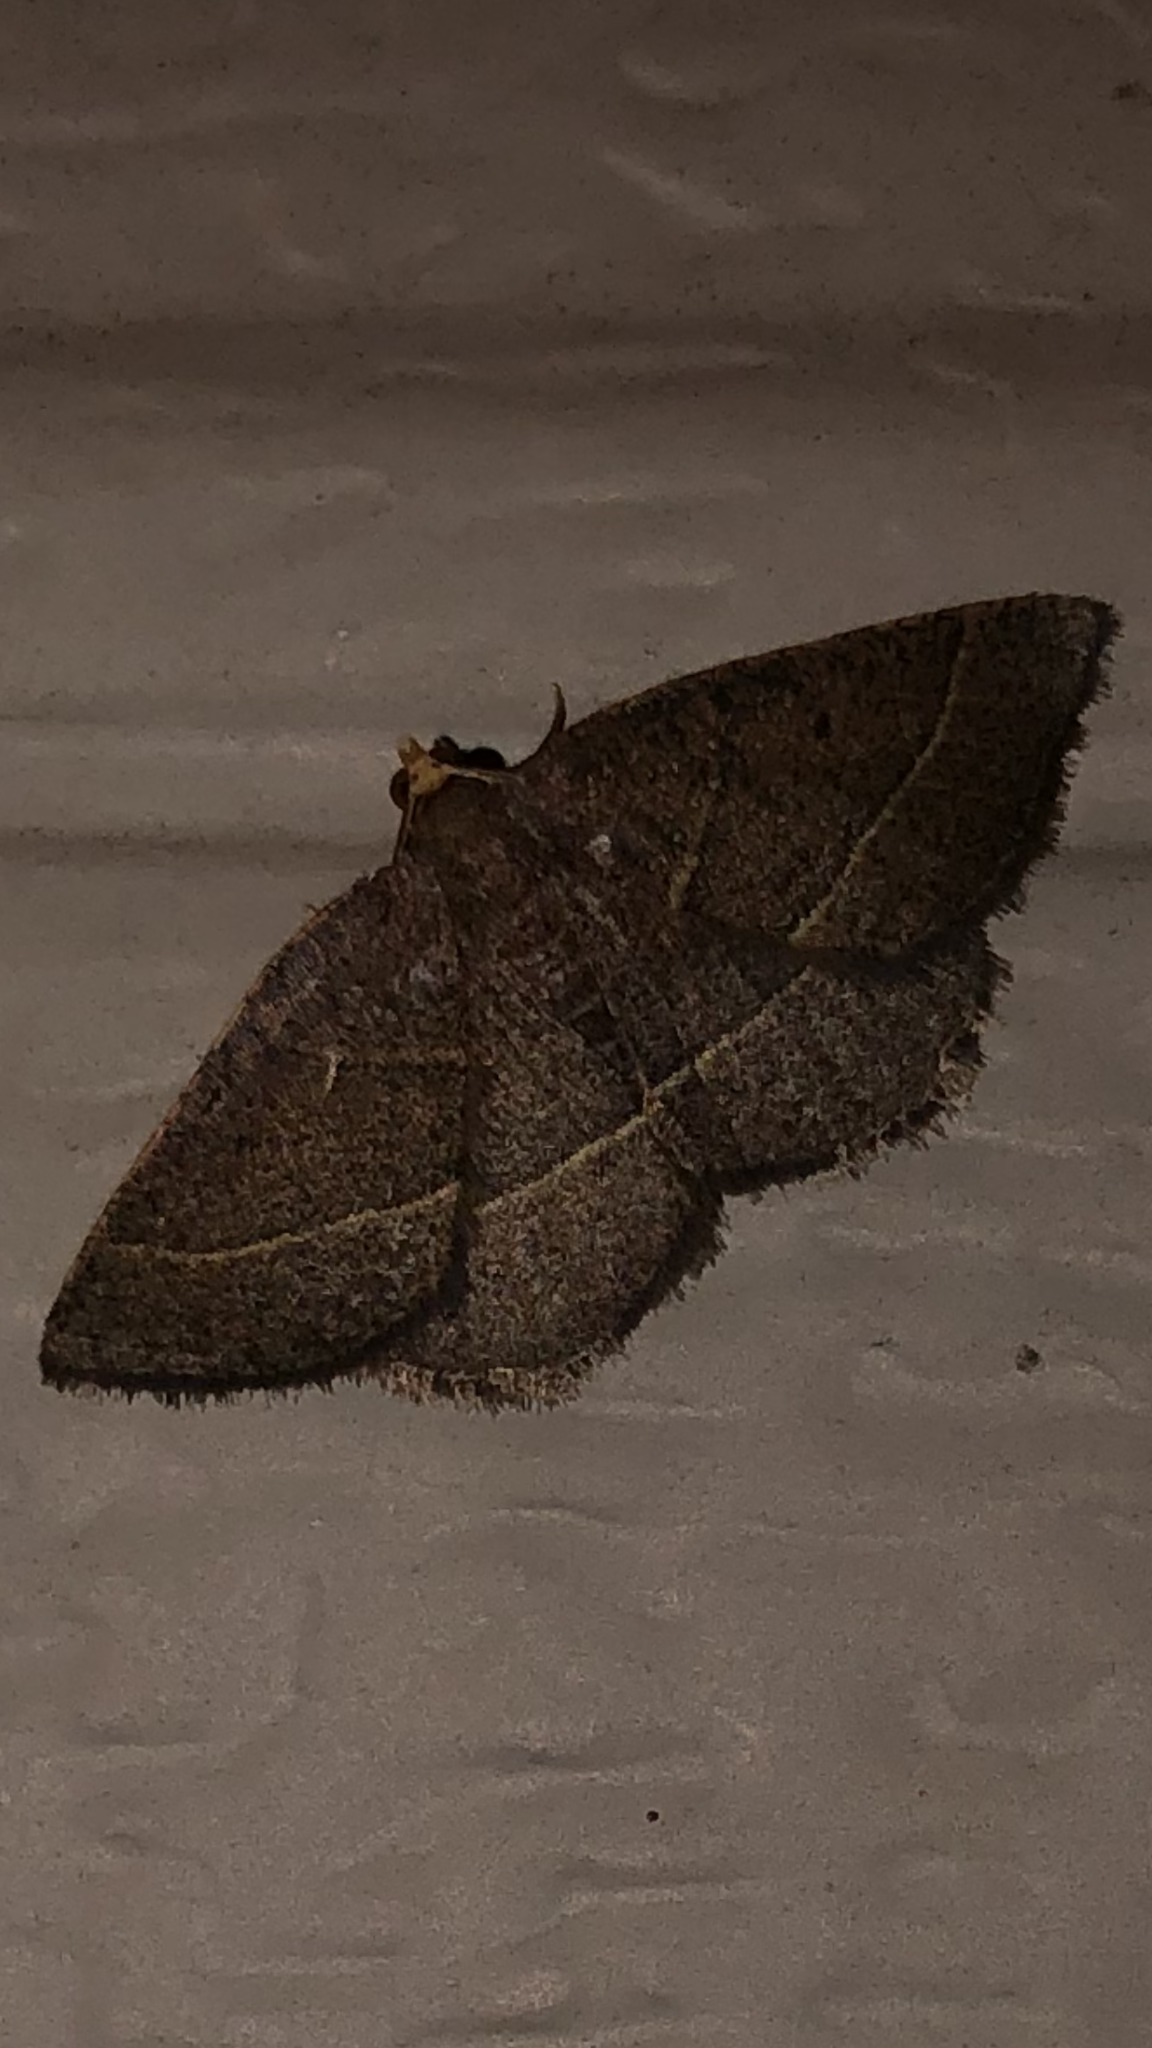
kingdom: Animalia
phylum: Arthropoda
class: Insecta
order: Lepidoptera
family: Geometridae
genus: Episemasia
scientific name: Episemasia cervinaria
